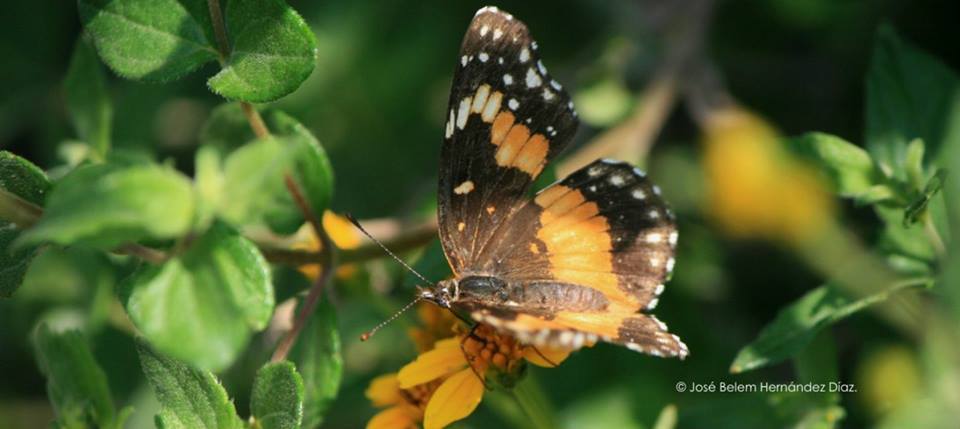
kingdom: Animalia
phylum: Arthropoda
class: Insecta
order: Lepidoptera
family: Nymphalidae
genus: Chlosyne
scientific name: Chlosyne lacinia
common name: Bordered patch
